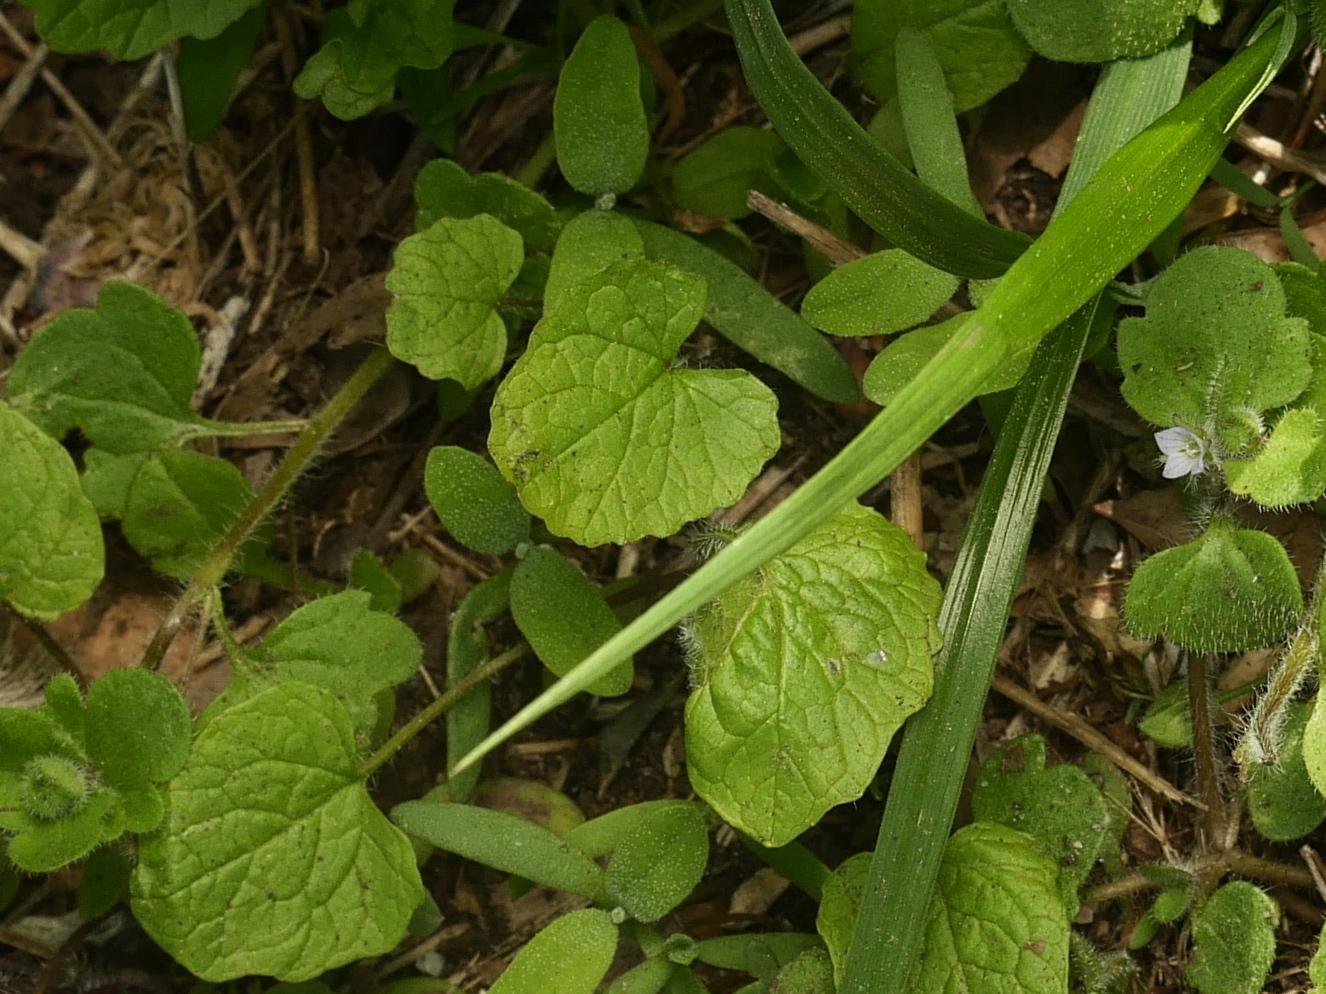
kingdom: Plantae
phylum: Tracheophyta
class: Magnoliopsida
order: Brassicales
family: Brassicaceae
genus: Alliaria
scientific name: Alliaria petiolata
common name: Garlic mustard
